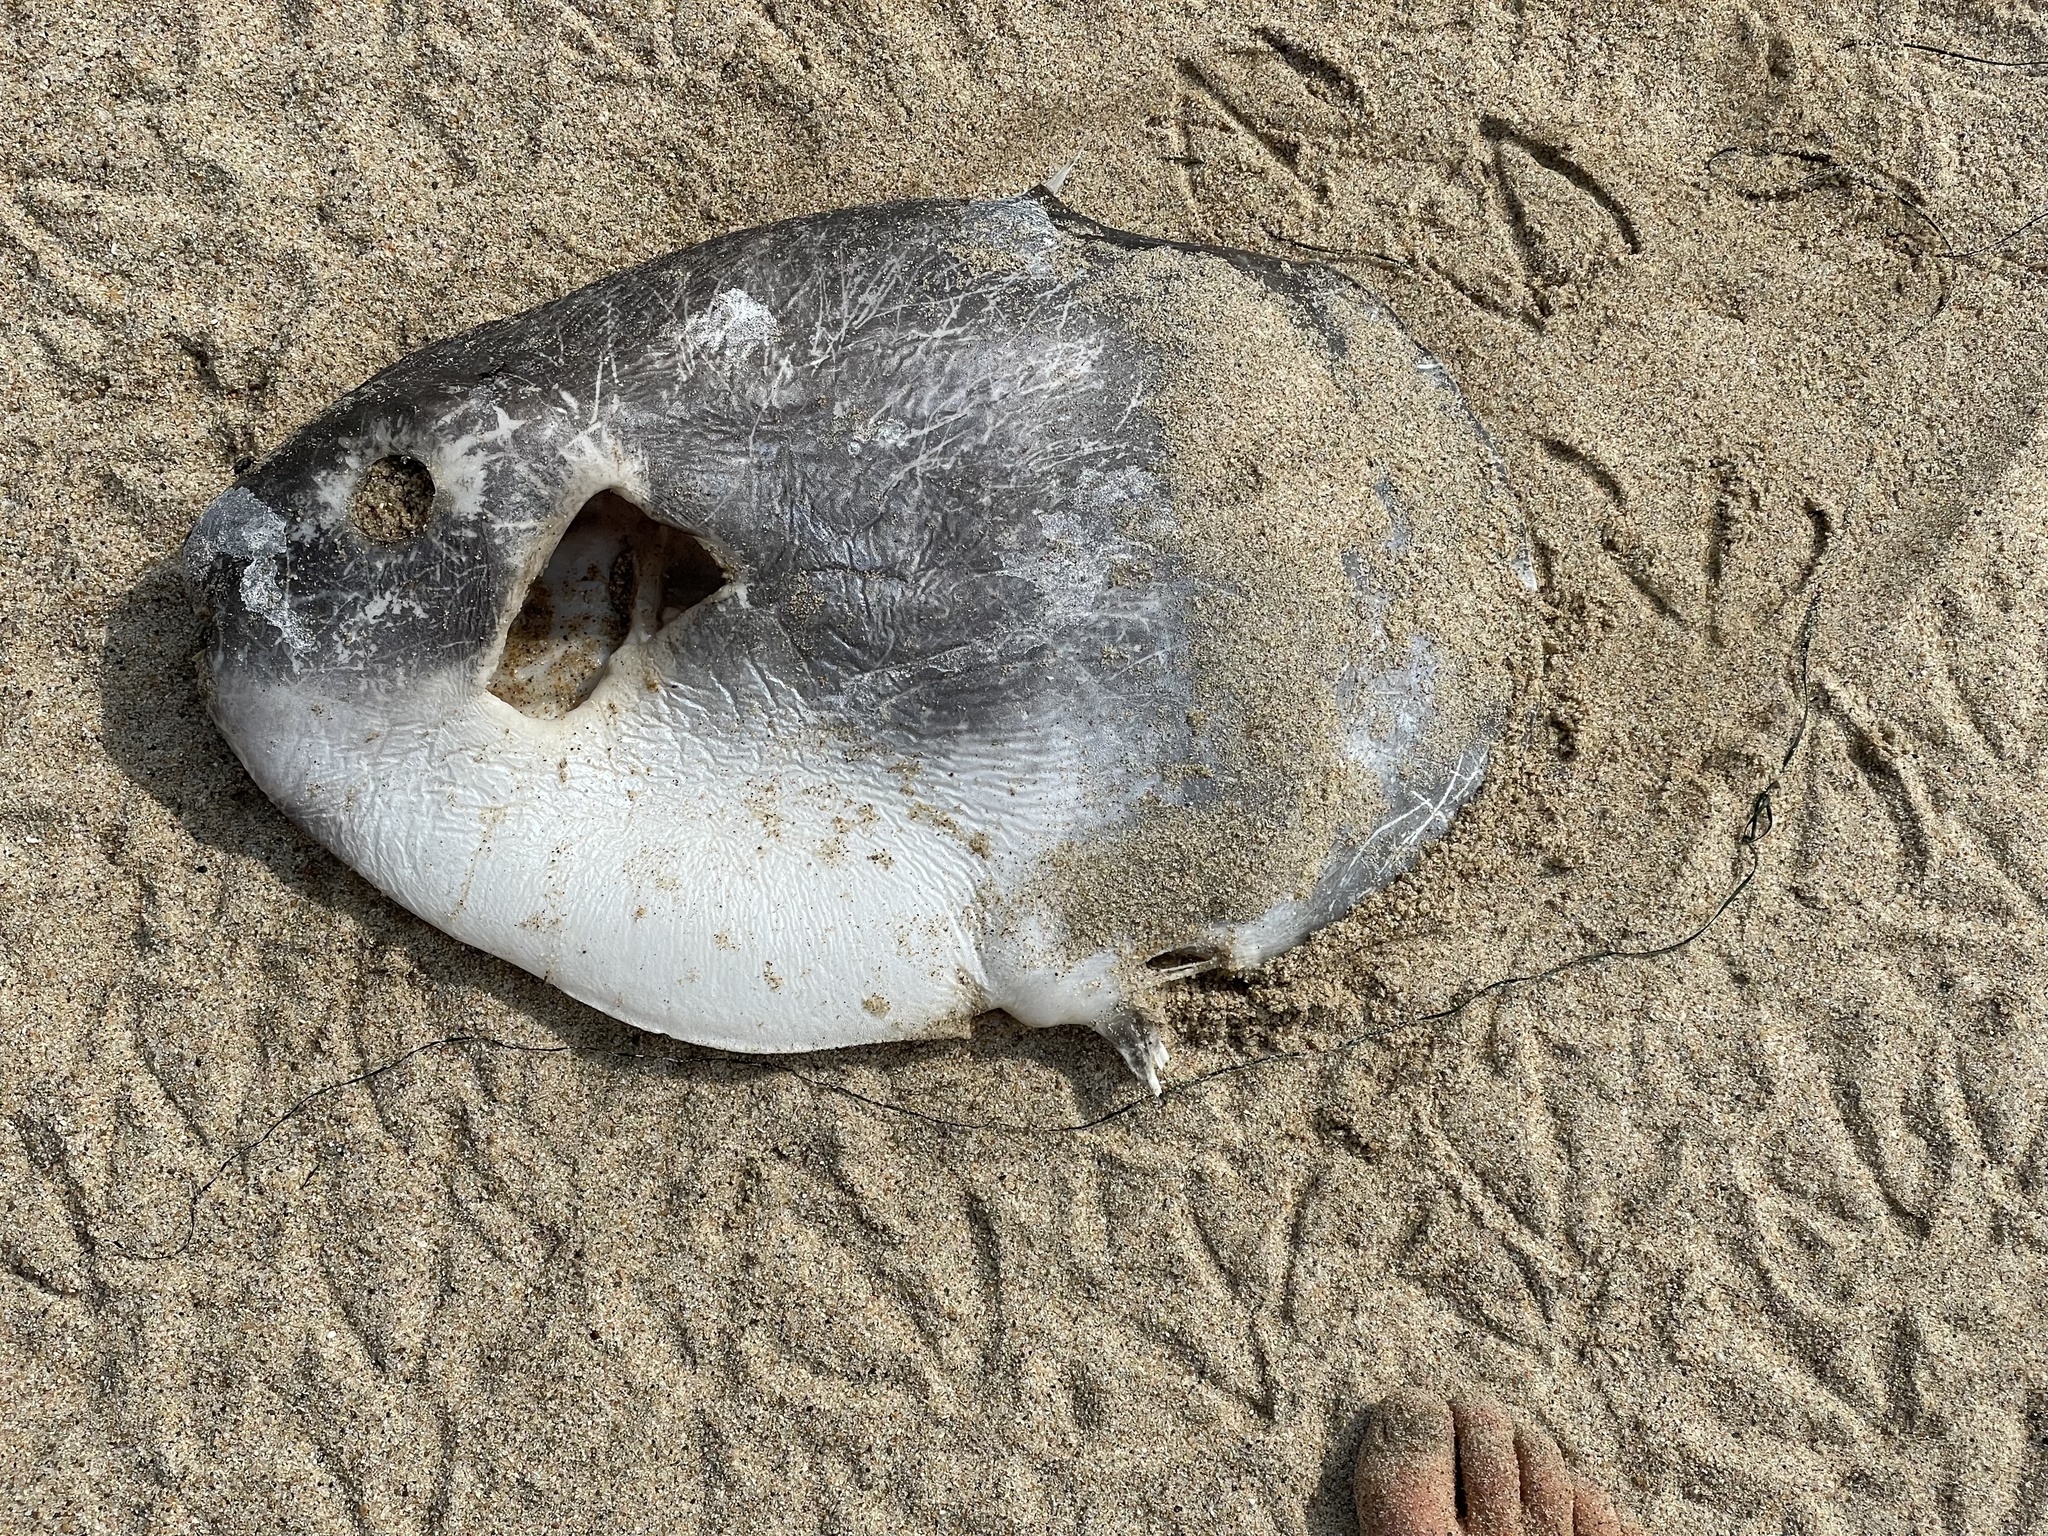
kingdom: Animalia
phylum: Chordata
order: Tetraodontiformes
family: Molidae
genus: Mola
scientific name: Mola mola
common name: Ocean sunfish
